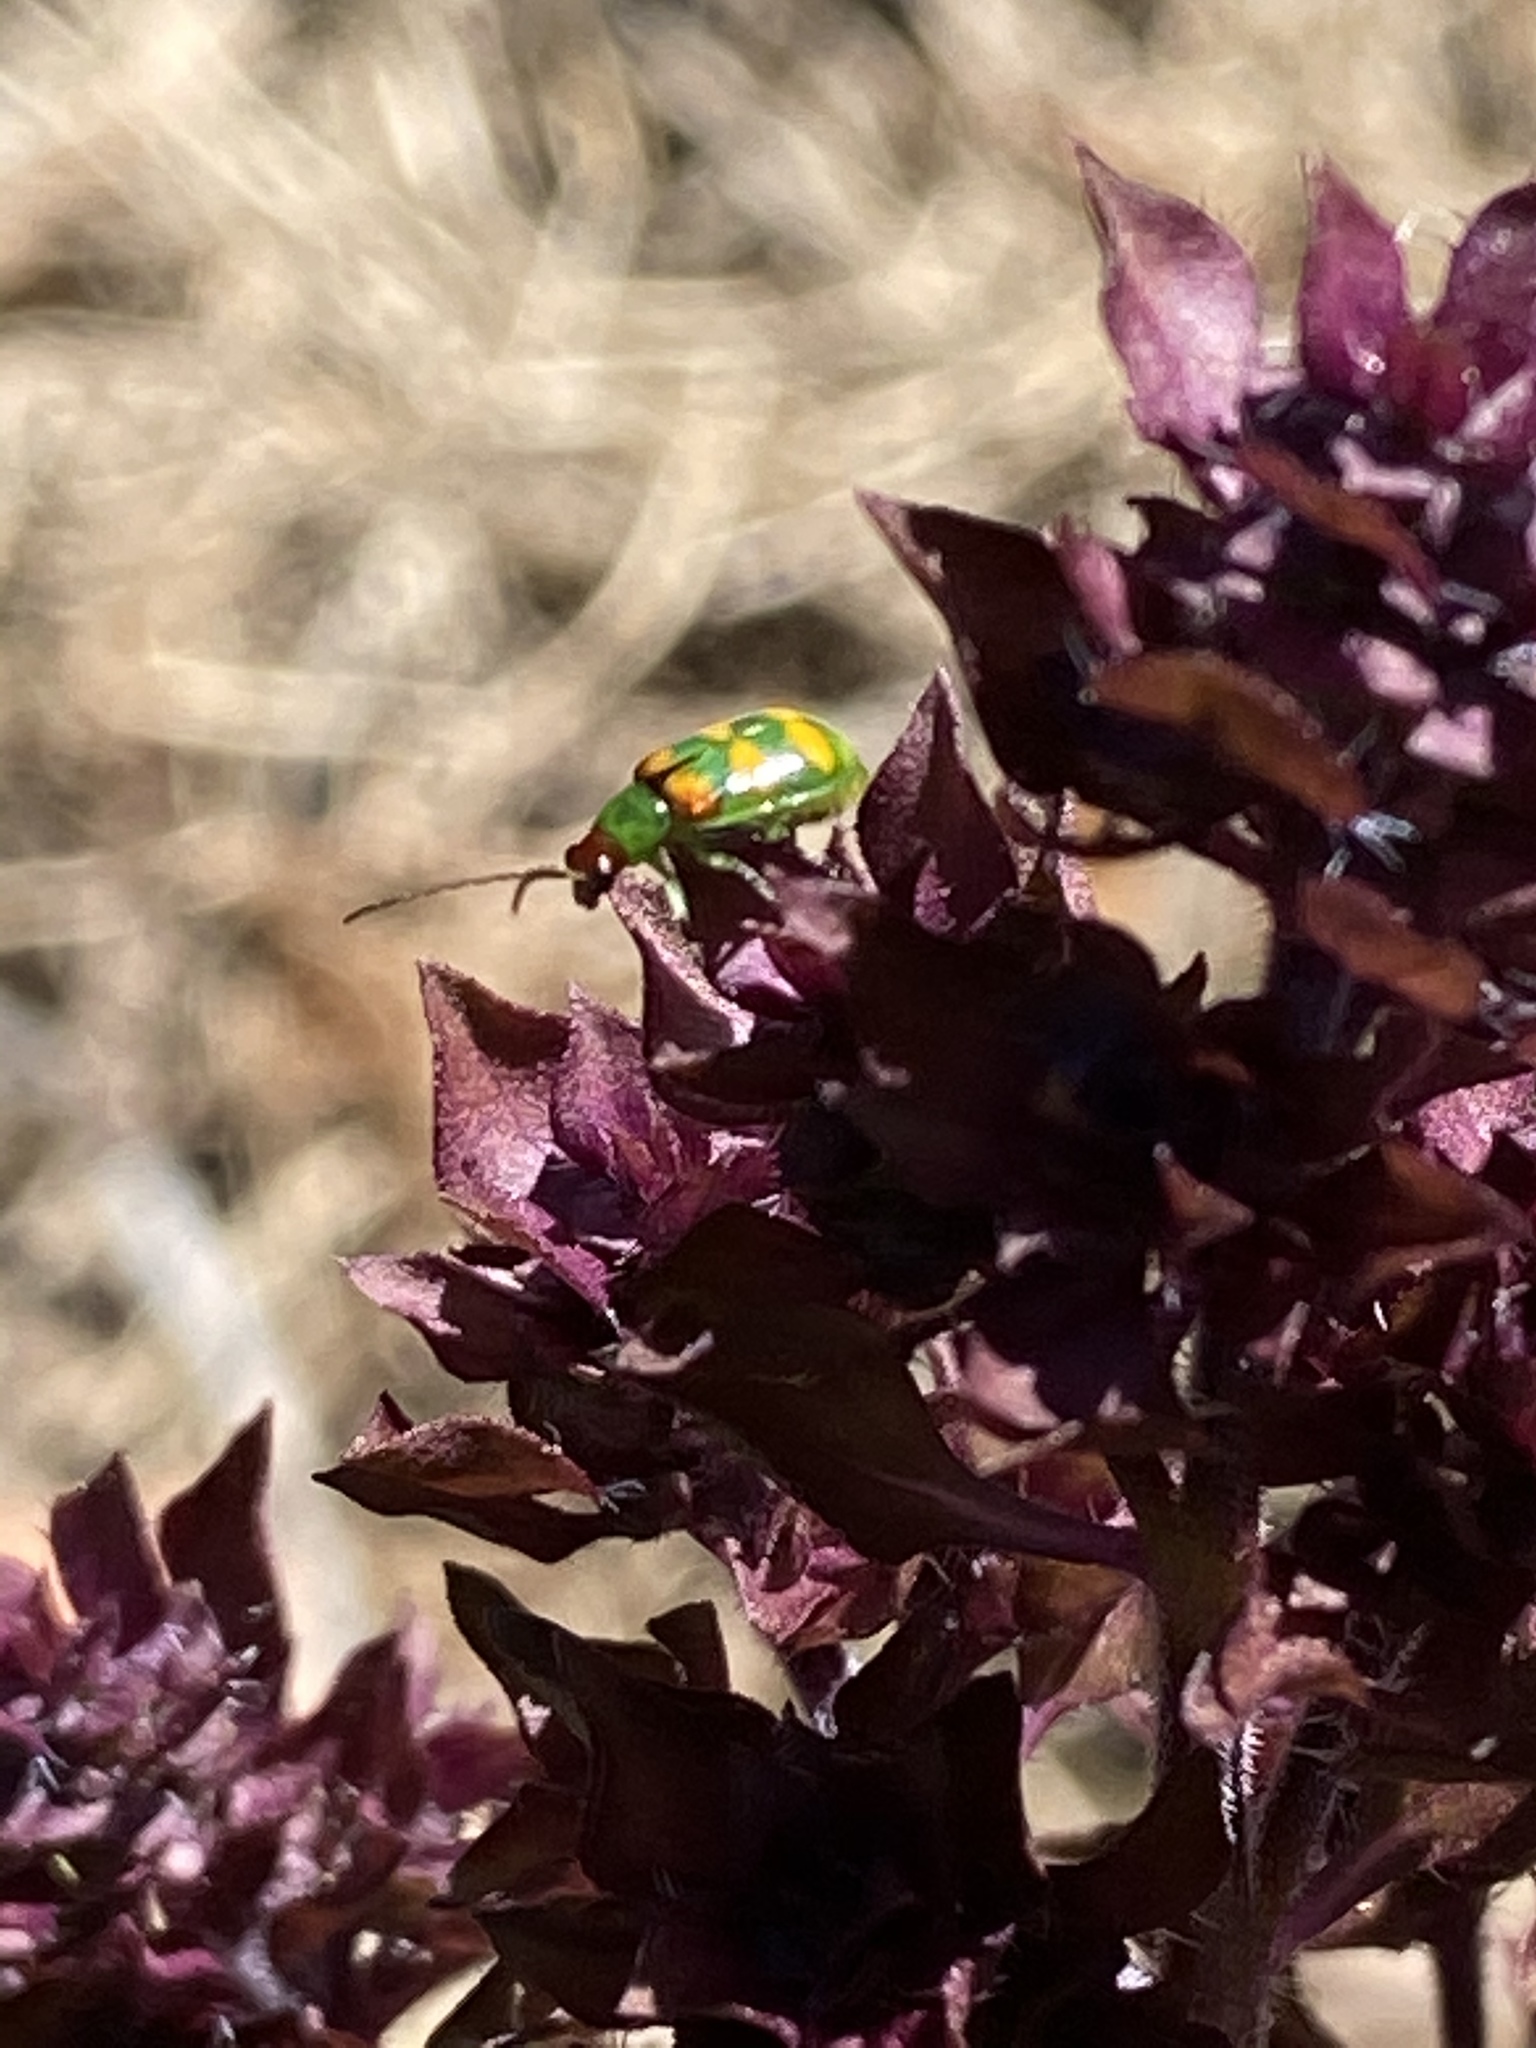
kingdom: Animalia
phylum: Arthropoda
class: Insecta
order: Coleoptera
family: Chrysomelidae
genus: Diabrotica
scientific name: Diabrotica speciosa
